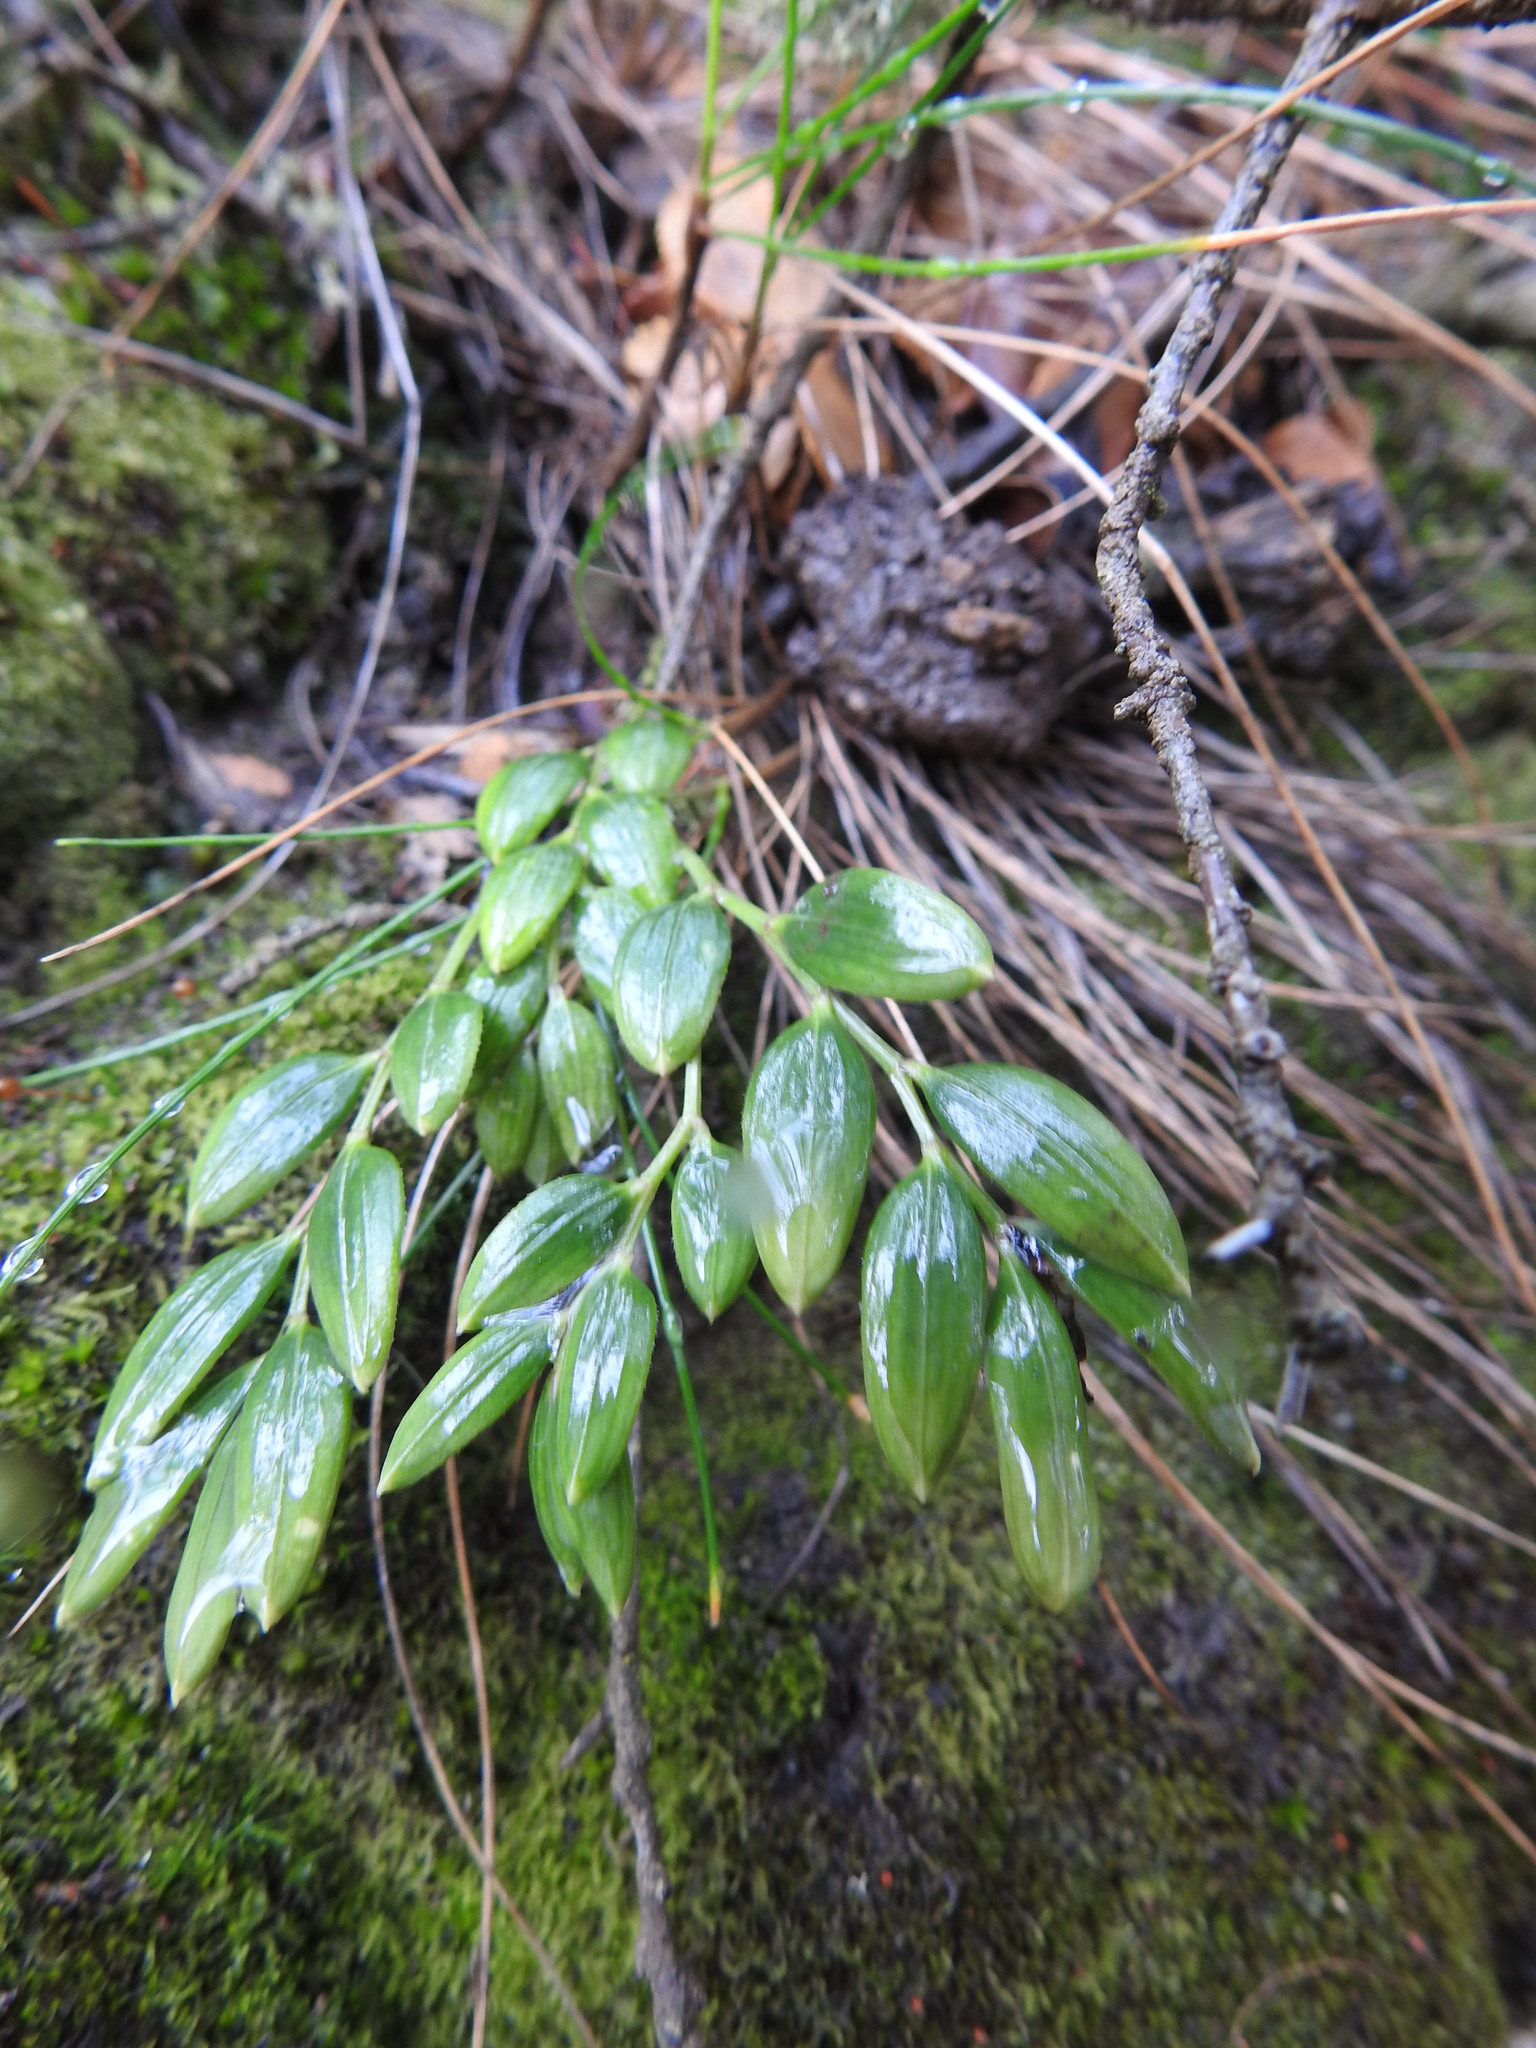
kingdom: Plantae
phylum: Tracheophyta
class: Liliopsida
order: Liliales
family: Alstroemeriaceae
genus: Luzuriaga
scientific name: Luzuriaga marginata
